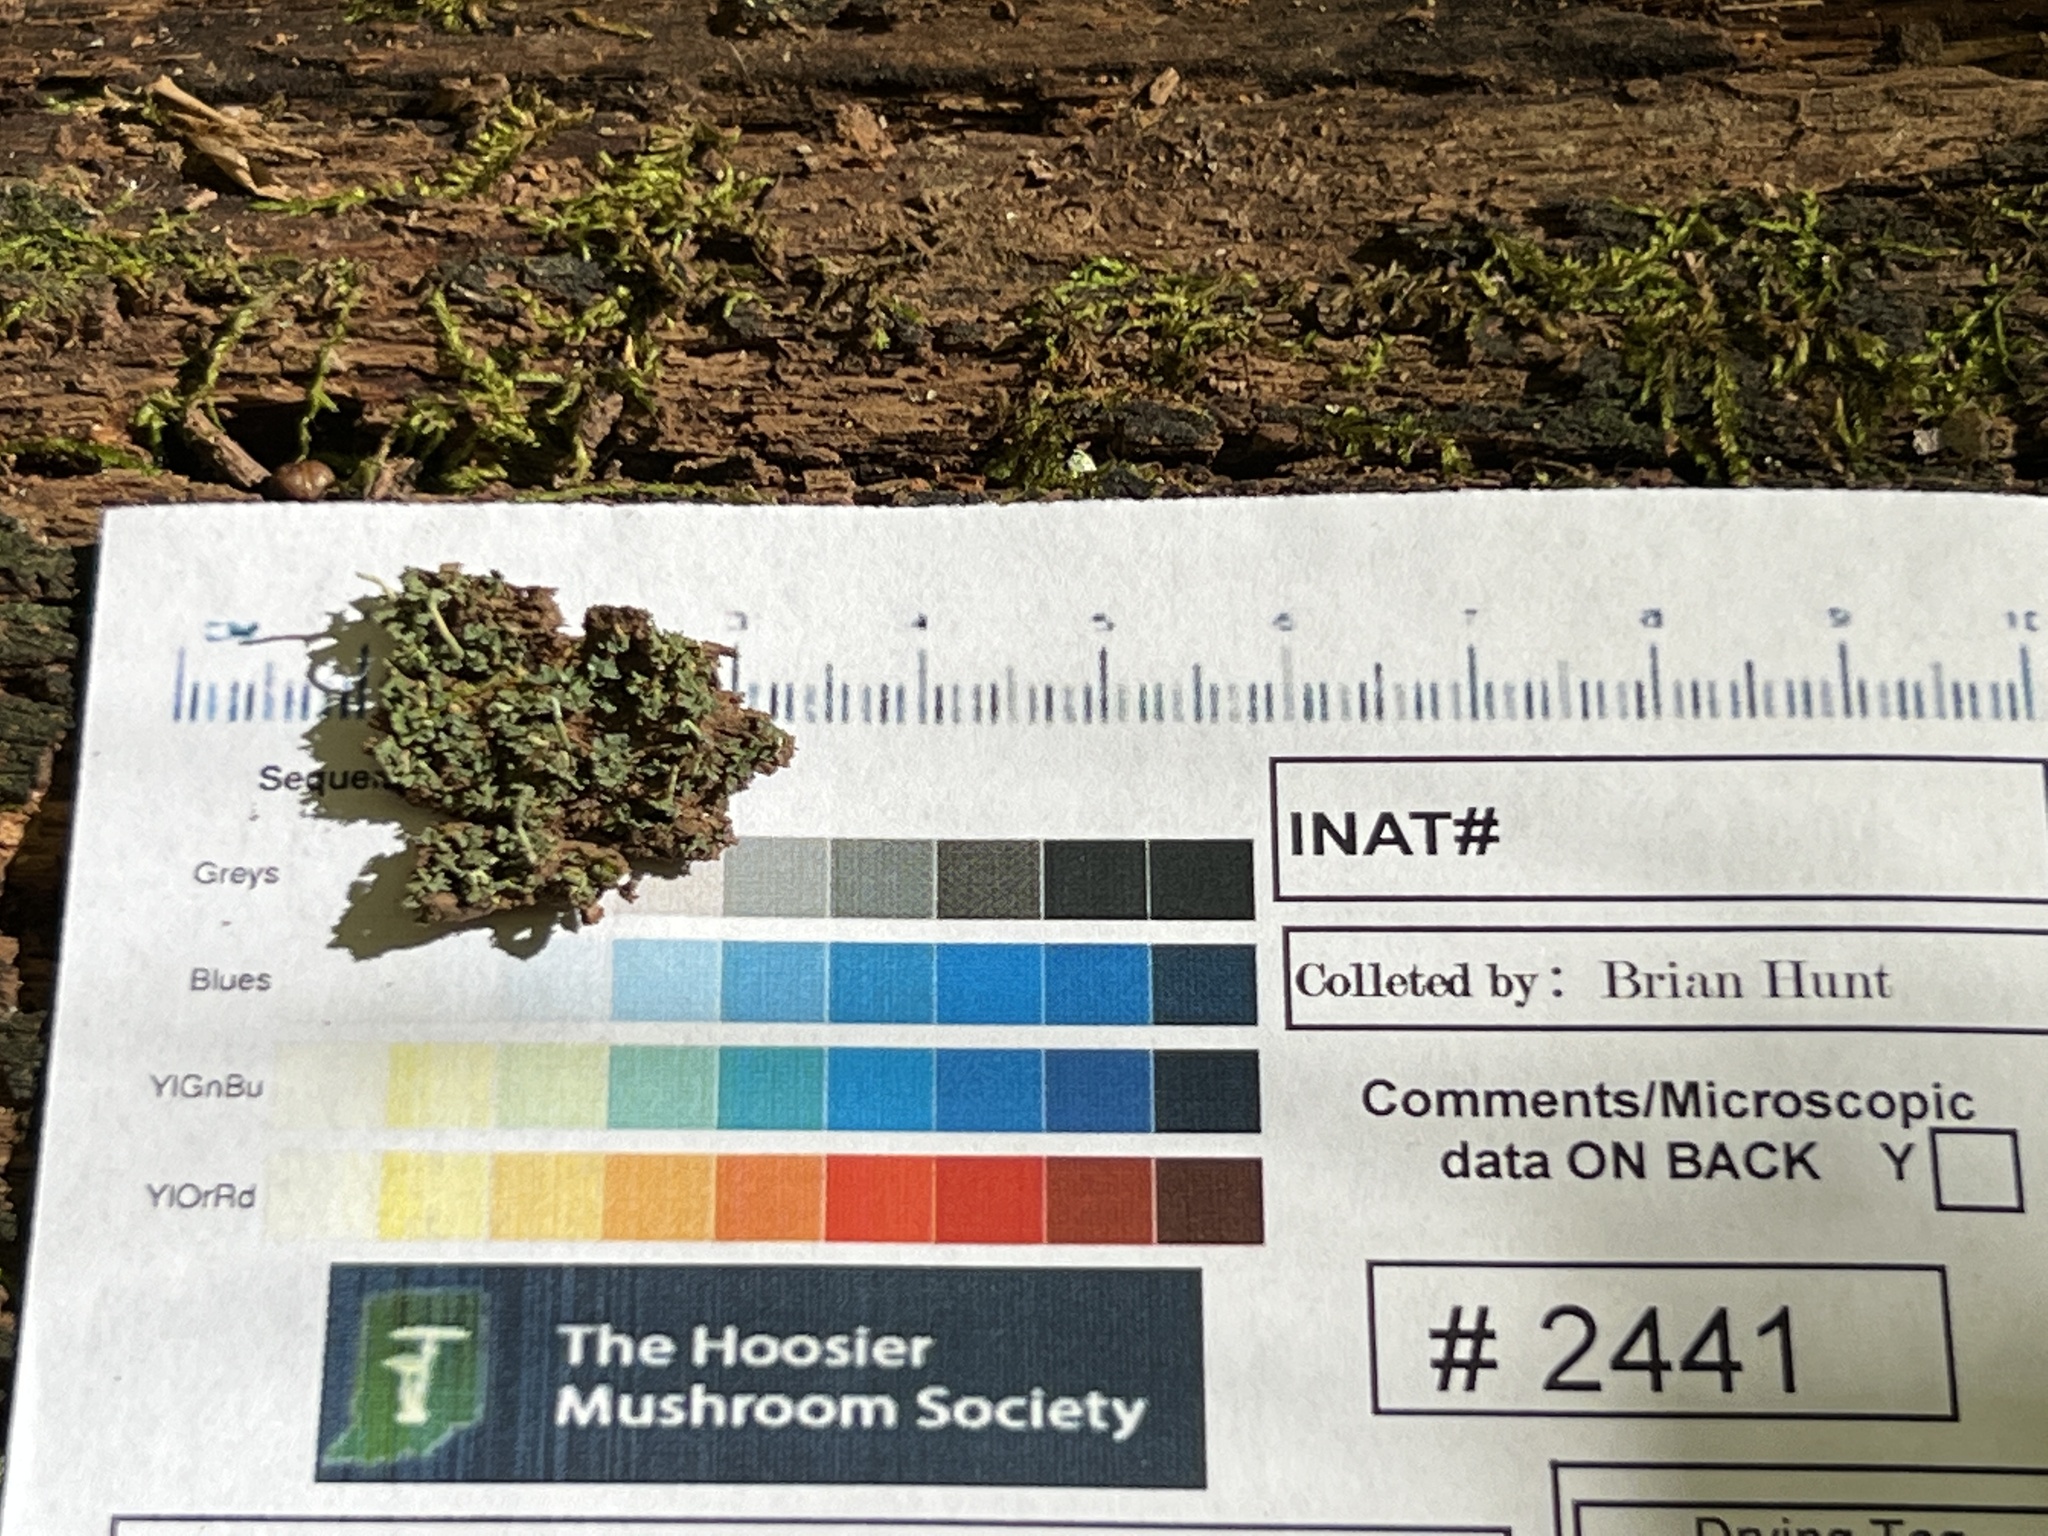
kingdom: Fungi
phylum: Ascomycota
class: Lecanoromycetes
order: Lecanorales
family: Cladoniaceae
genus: Cladonia
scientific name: Cladonia coniocraea
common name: Common powderhorn
